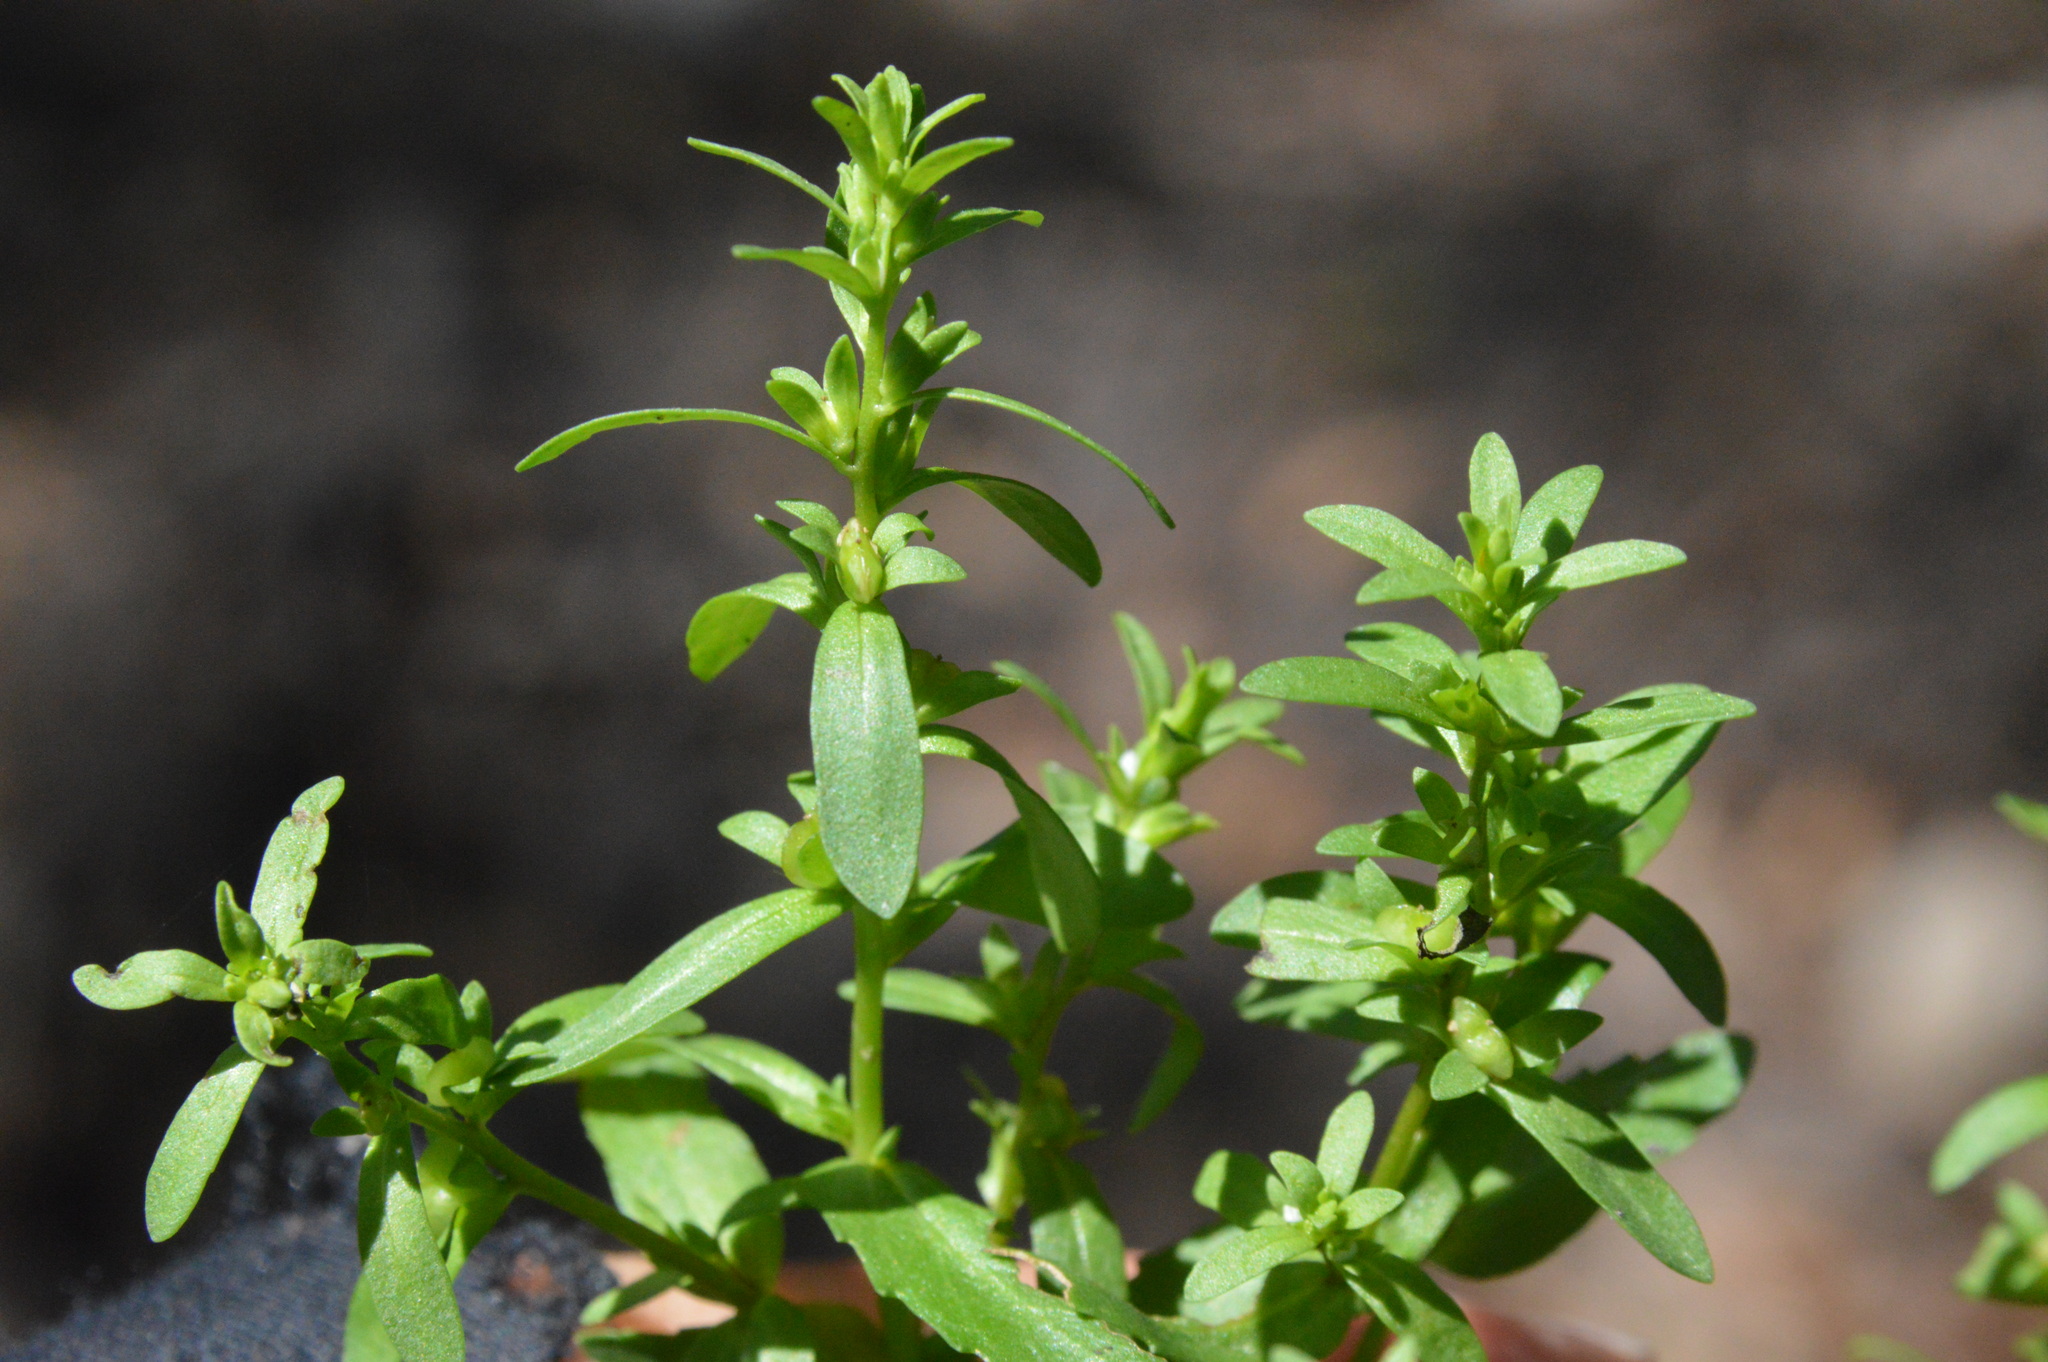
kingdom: Plantae
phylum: Tracheophyta
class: Magnoliopsida
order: Lamiales
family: Plantaginaceae
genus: Veronica
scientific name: Veronica peregrina
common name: Neckweed
